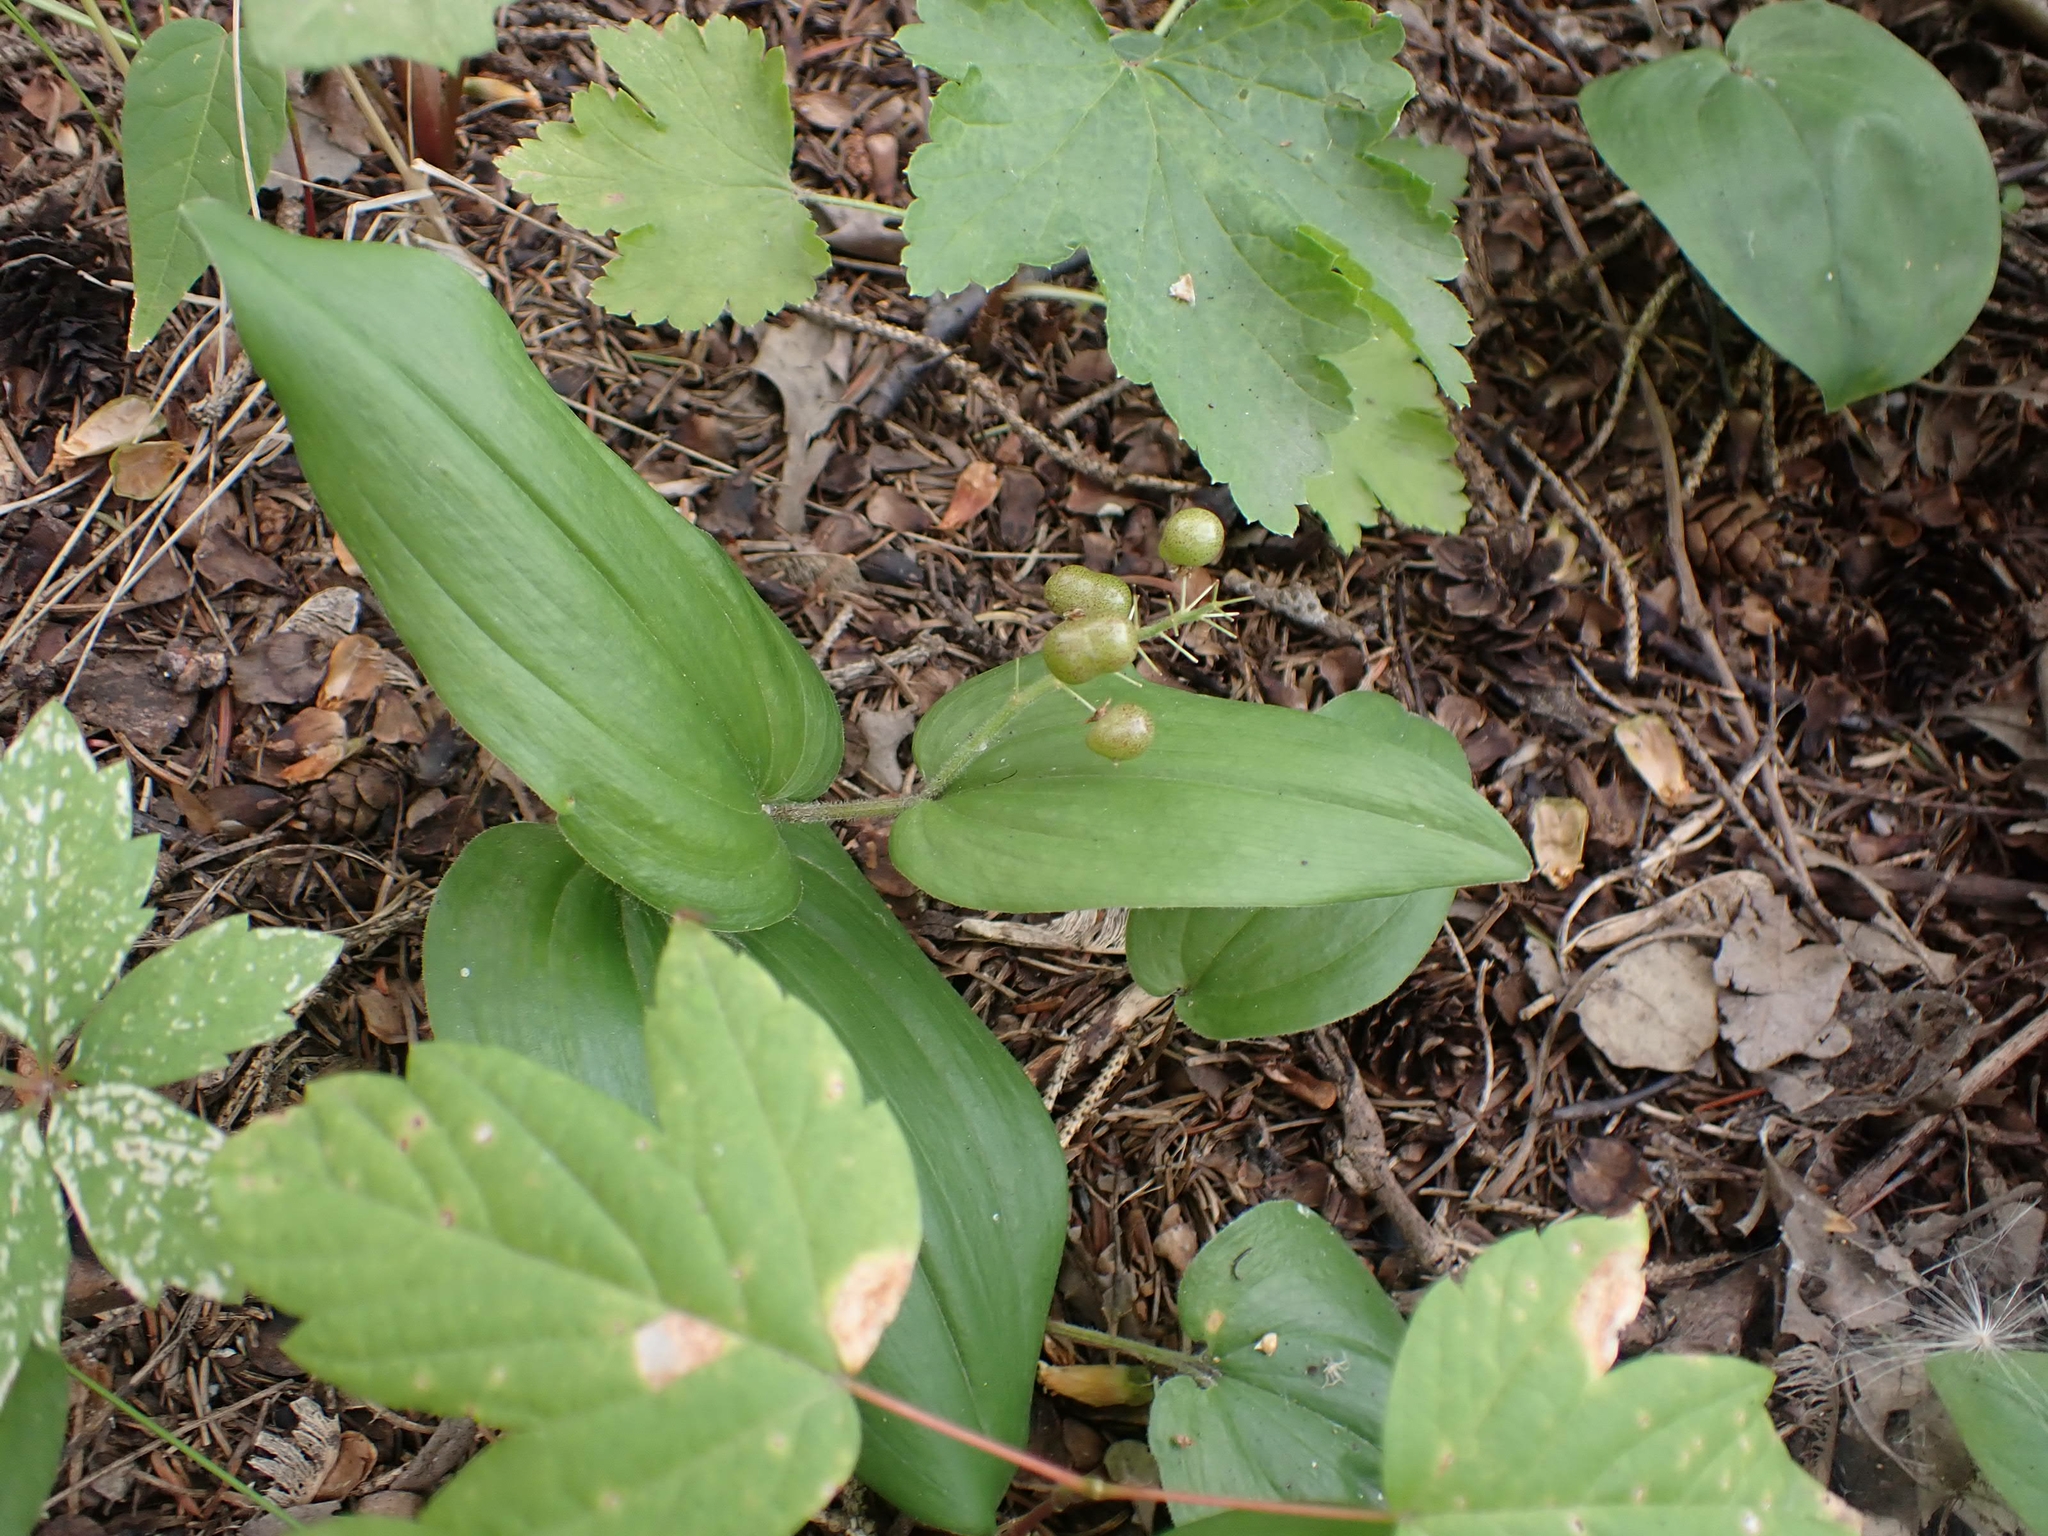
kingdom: Plantae
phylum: Tracheophyta
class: Liliopsida
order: Asparagales
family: Asparagaceae
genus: Maianthemum
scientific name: Maianthemum canadense
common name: False lily-of-the-valley
